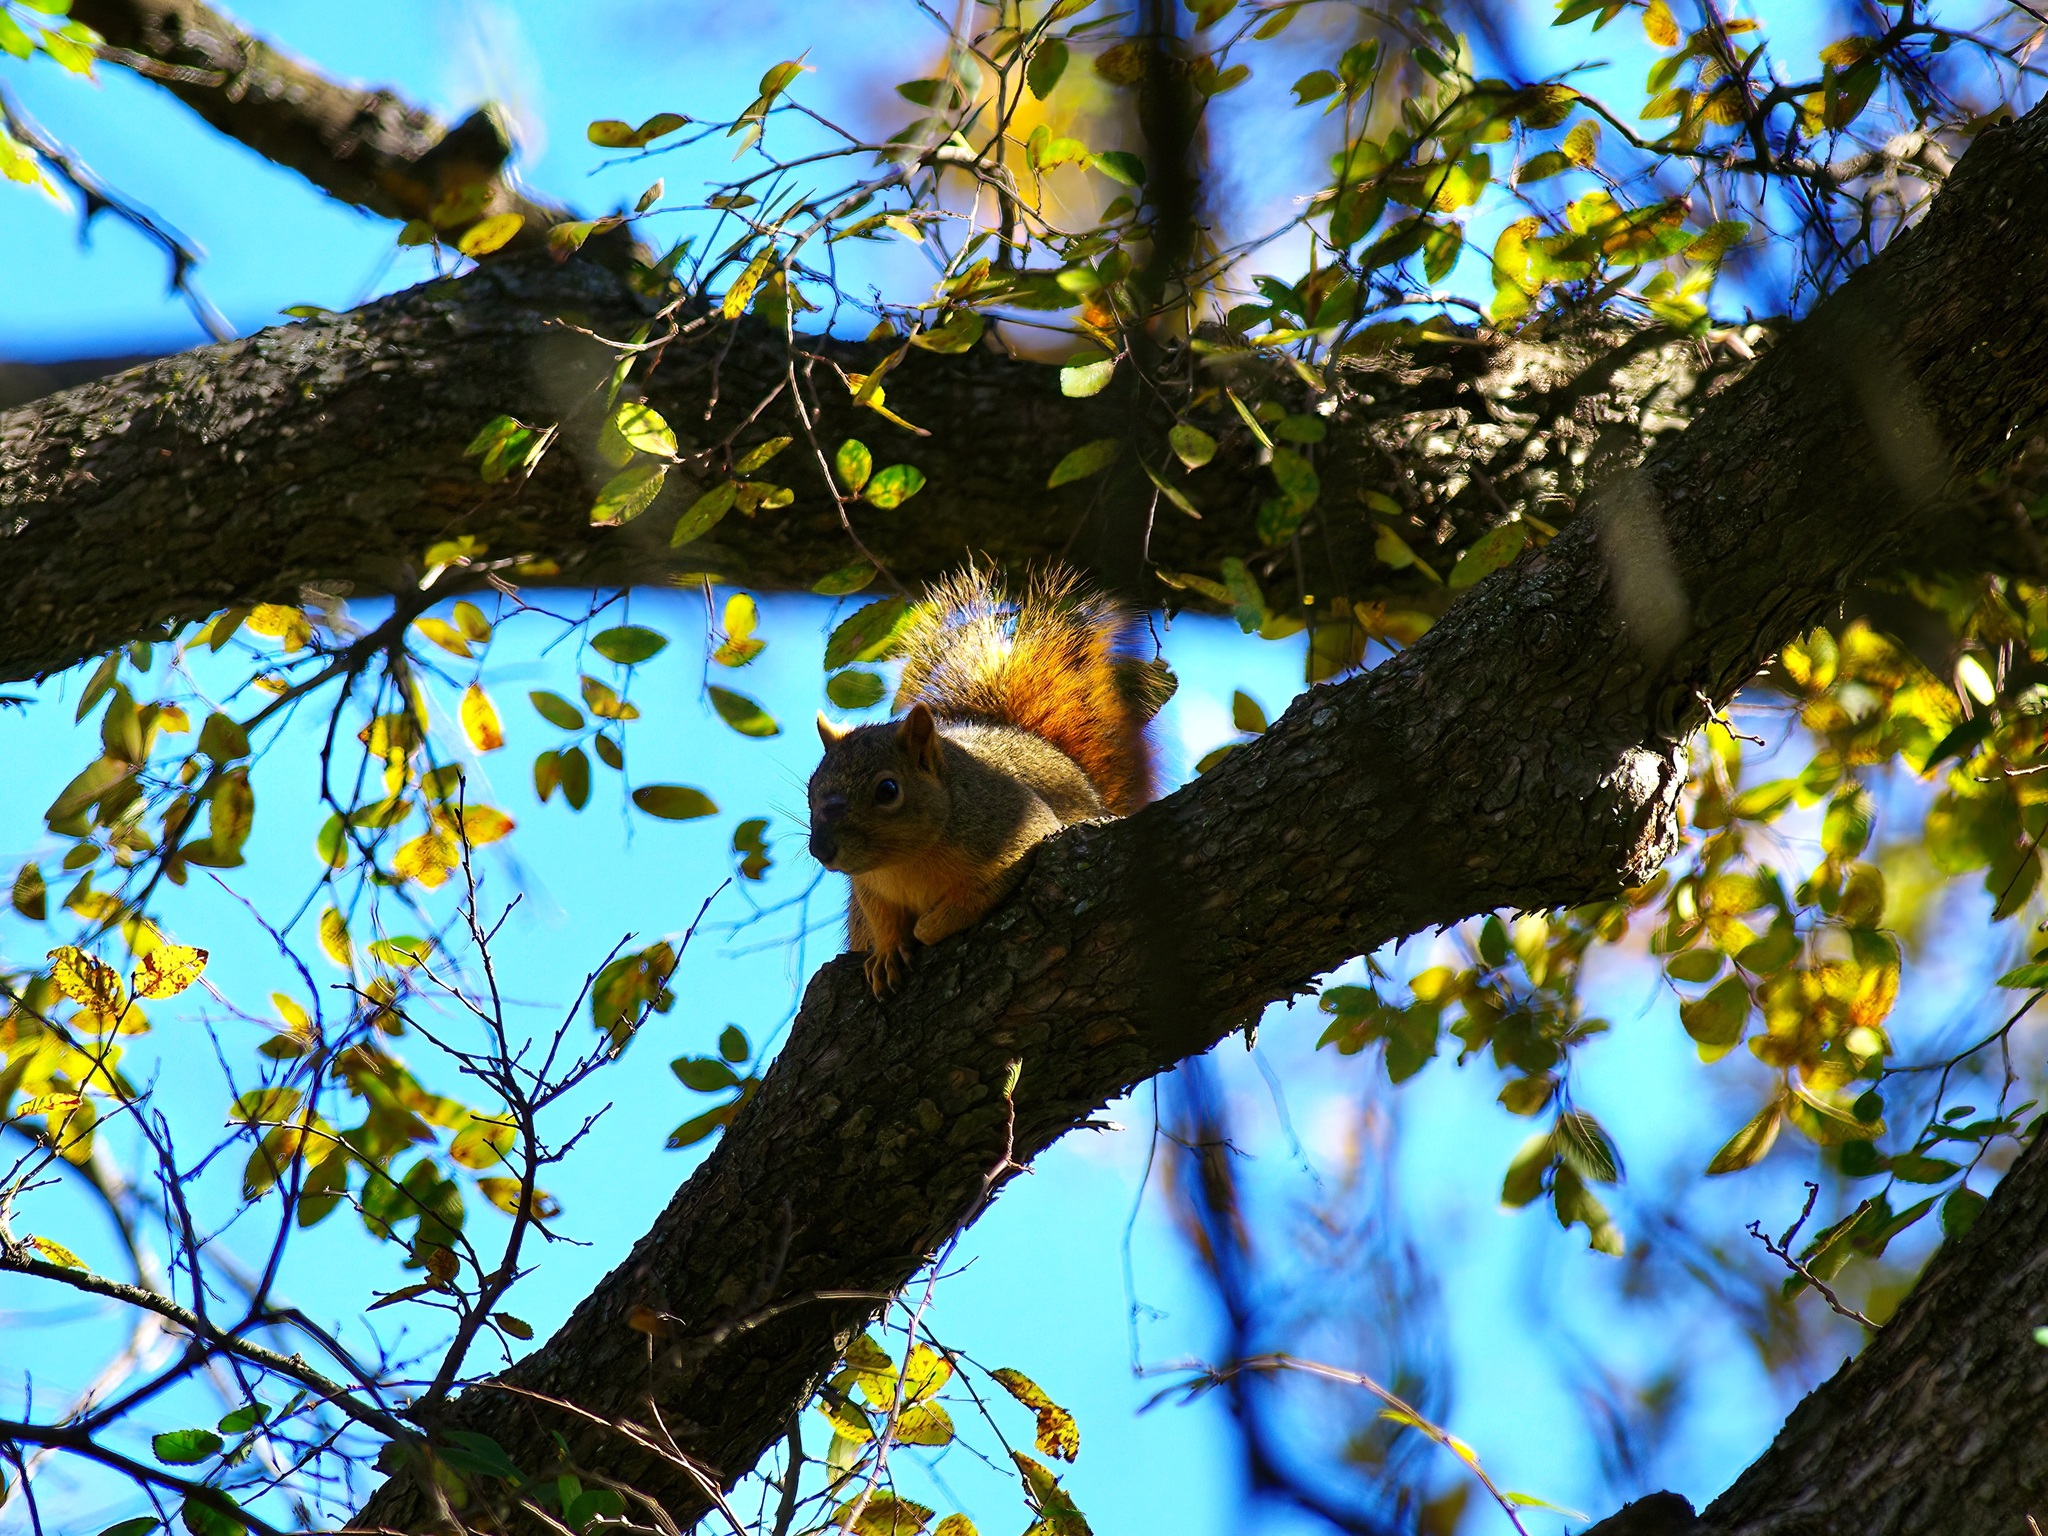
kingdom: Animalia
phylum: Chordata
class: Mammalia
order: Rodentia
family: Sciuridae
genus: Sciurus
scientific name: Sciurus niger
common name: Fox squirrel
